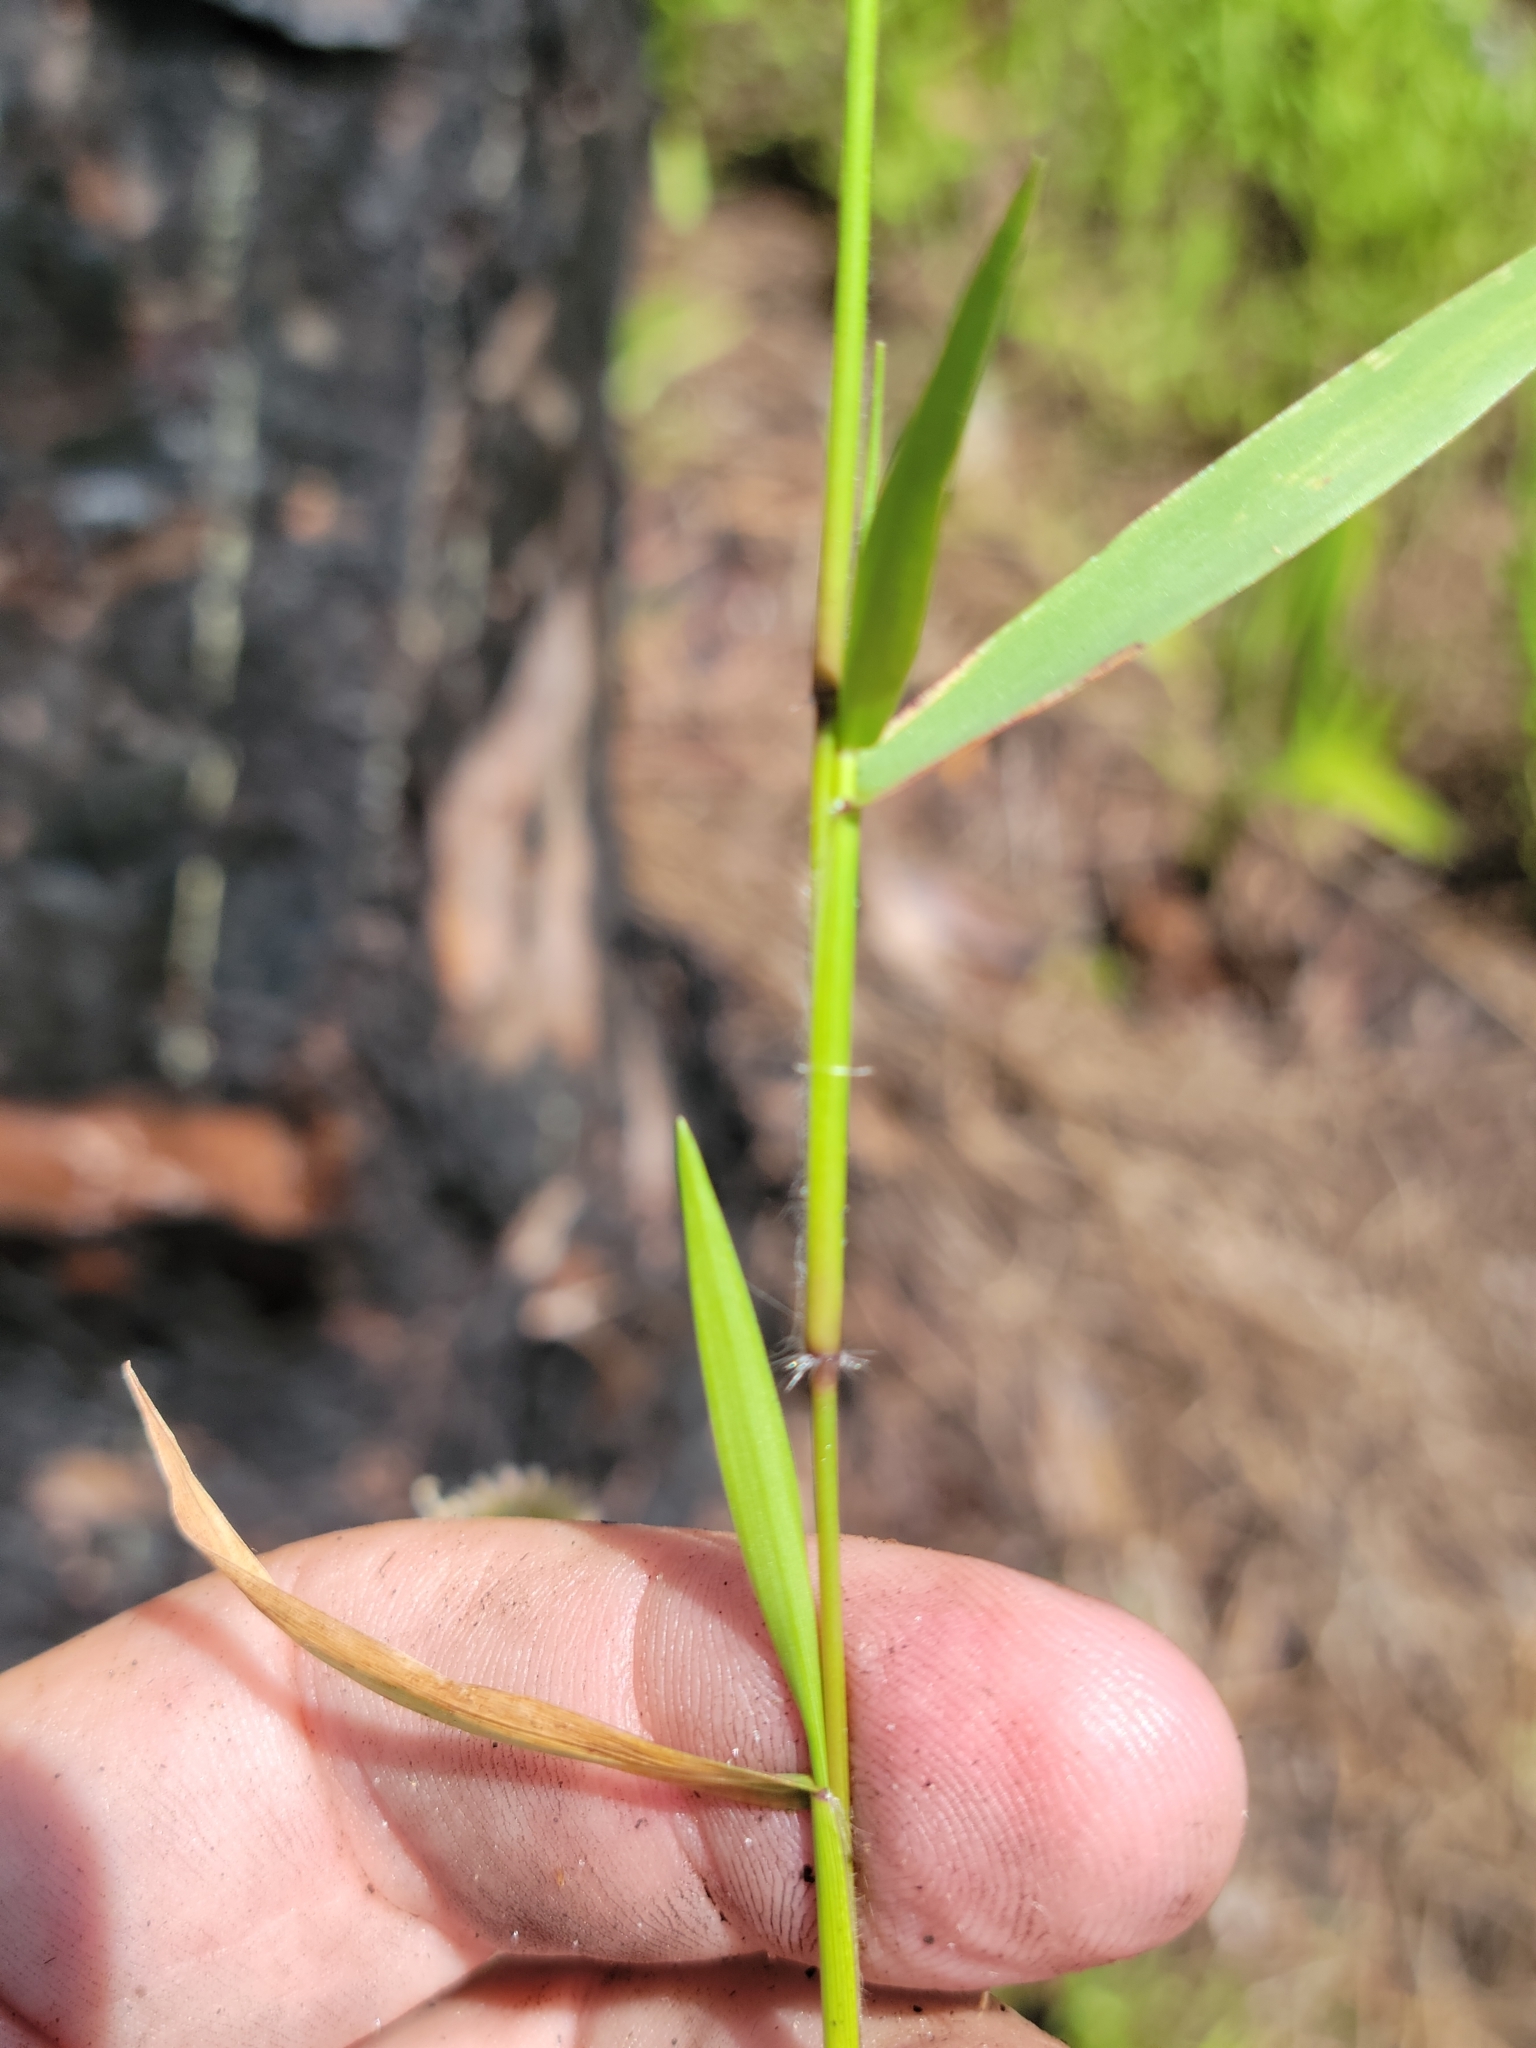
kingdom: Plantae
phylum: Tracheophyta
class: Liliopsida
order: Poales
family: Poaceae
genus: Dichanthelium
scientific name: Dichanthelium dichotomum
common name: Cypress panicgrass
